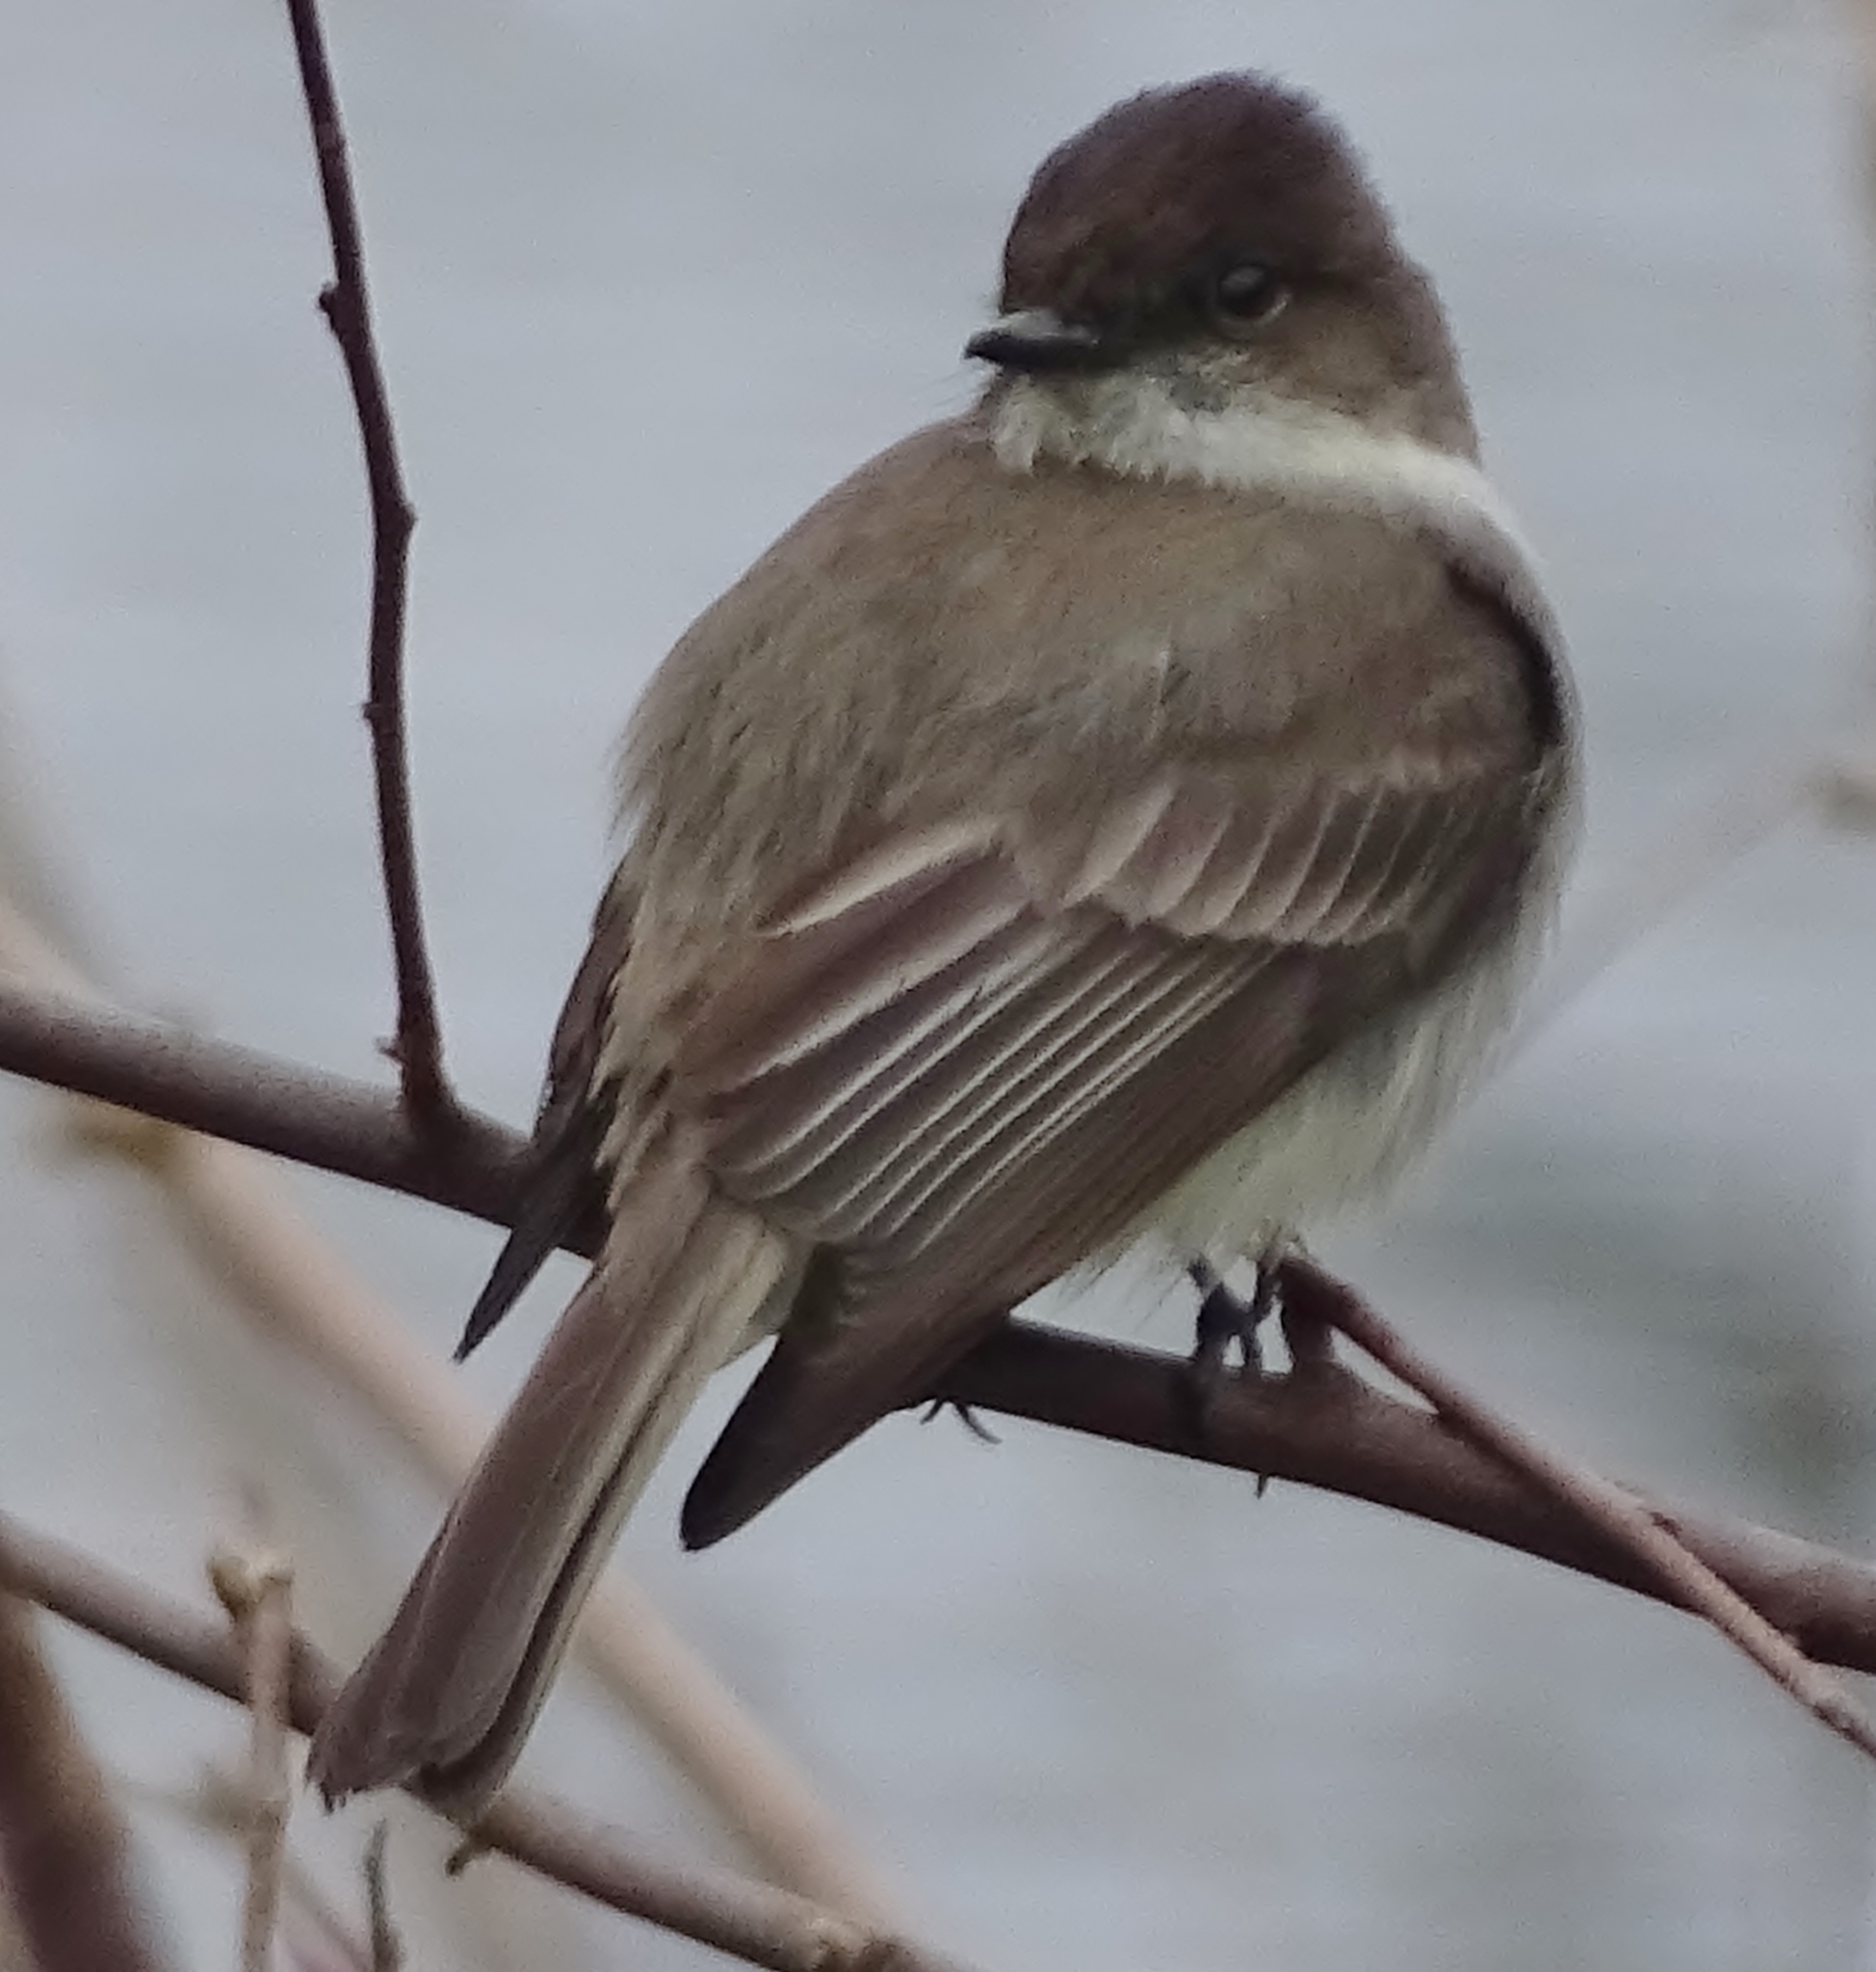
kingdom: Animalia
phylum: Chordata
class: Aves
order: Passeriformes
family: Tyrannidae
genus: Sayornis
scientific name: Sayornis phoebe
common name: Eastern phoebe
